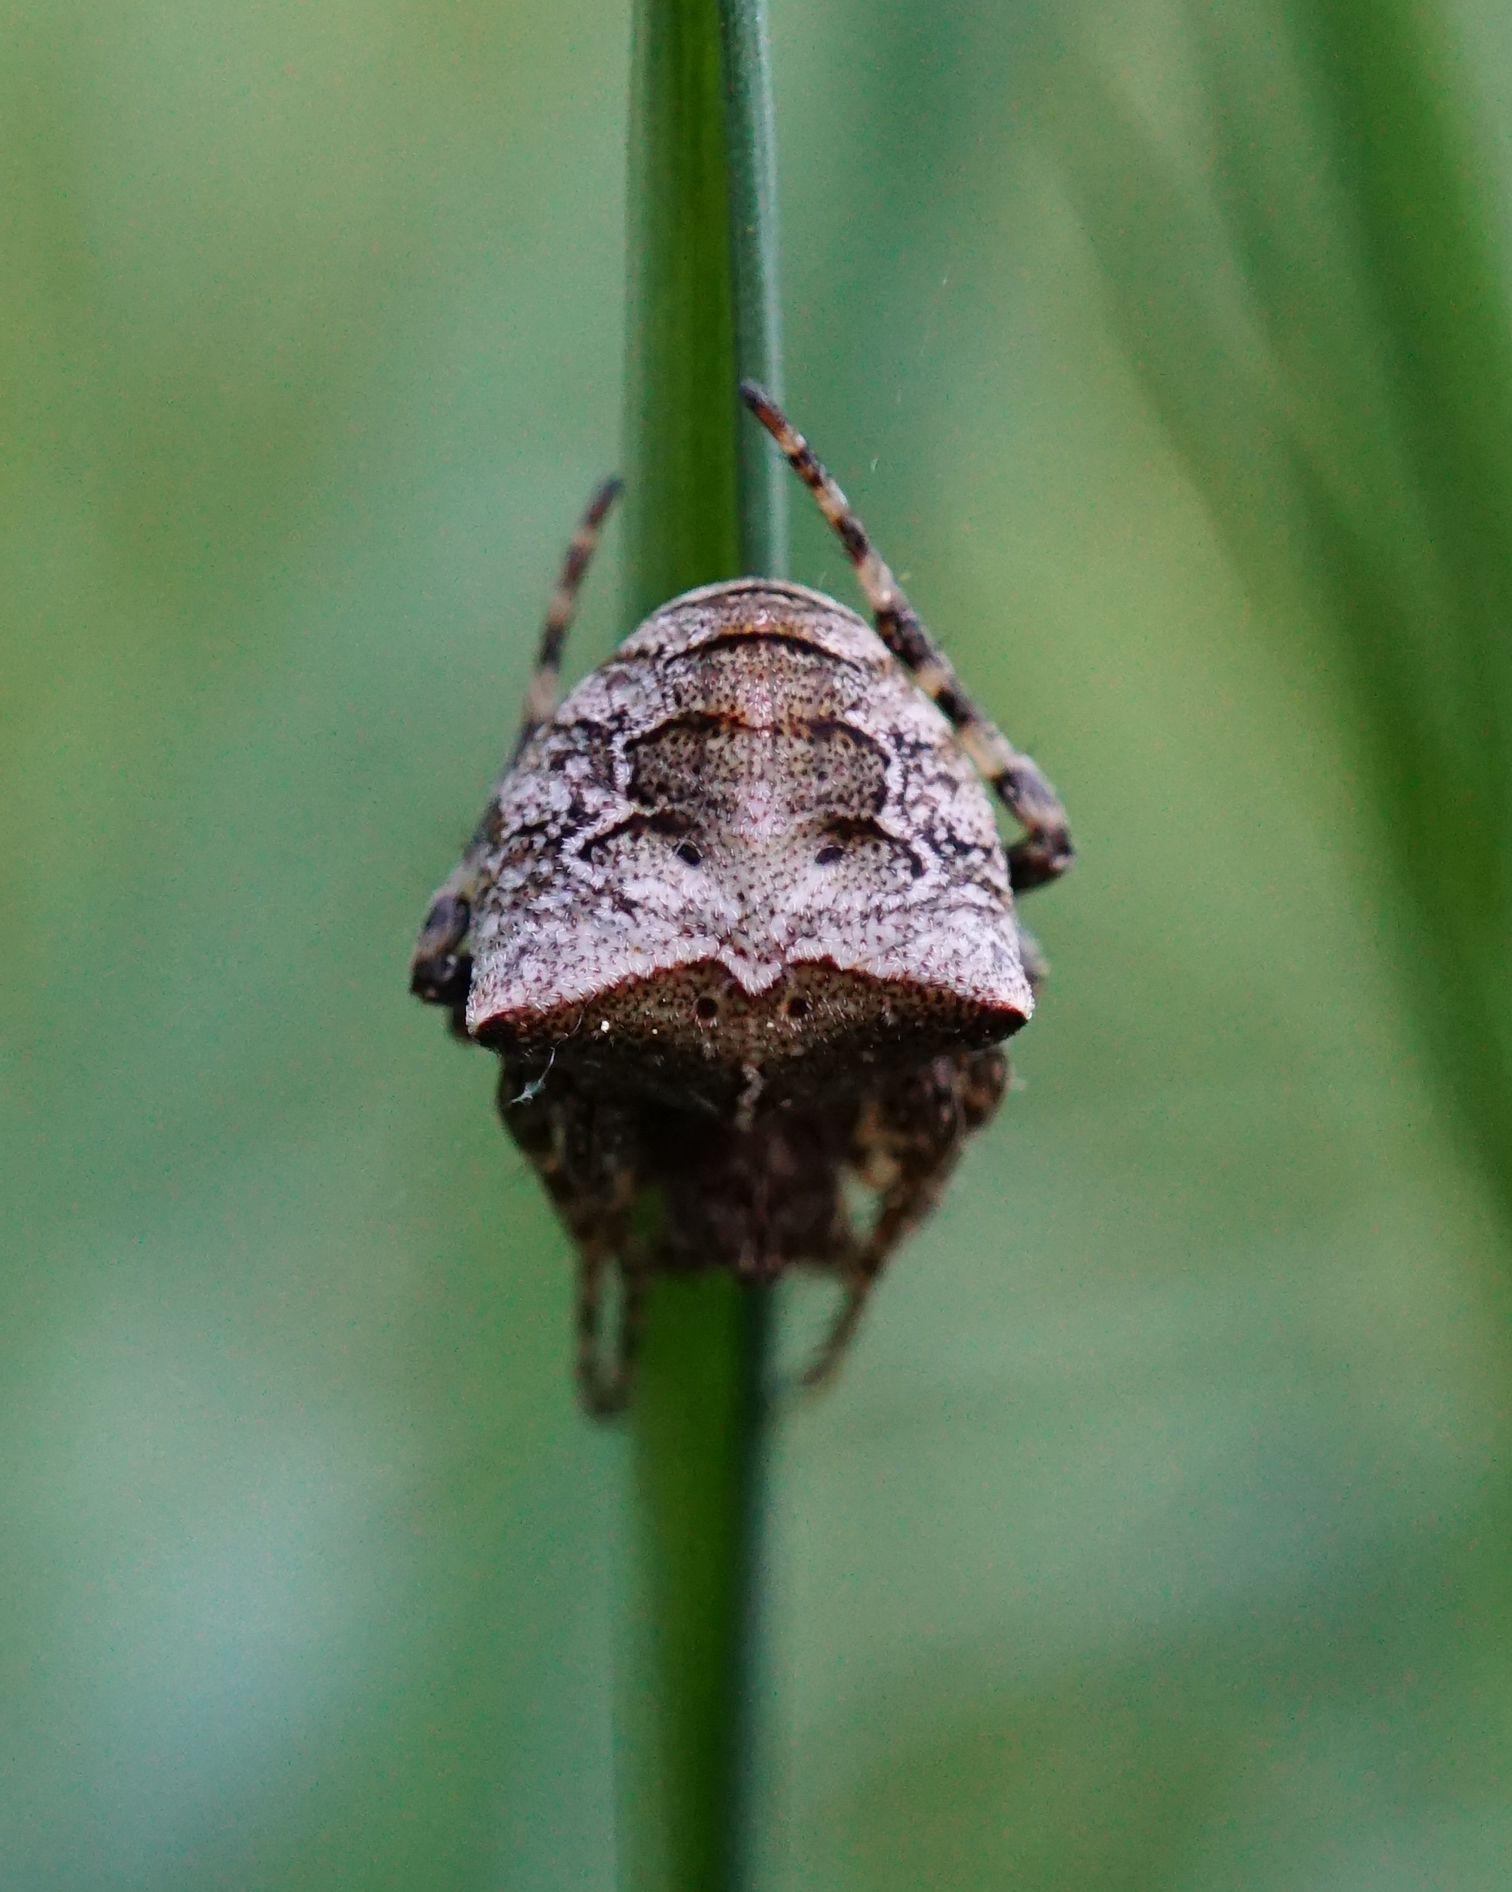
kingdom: Animalia
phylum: Arthropoda
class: Arachnida
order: Araneae
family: Araneidae
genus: Gibbaranea
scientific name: Gibbaranea bituberculata
